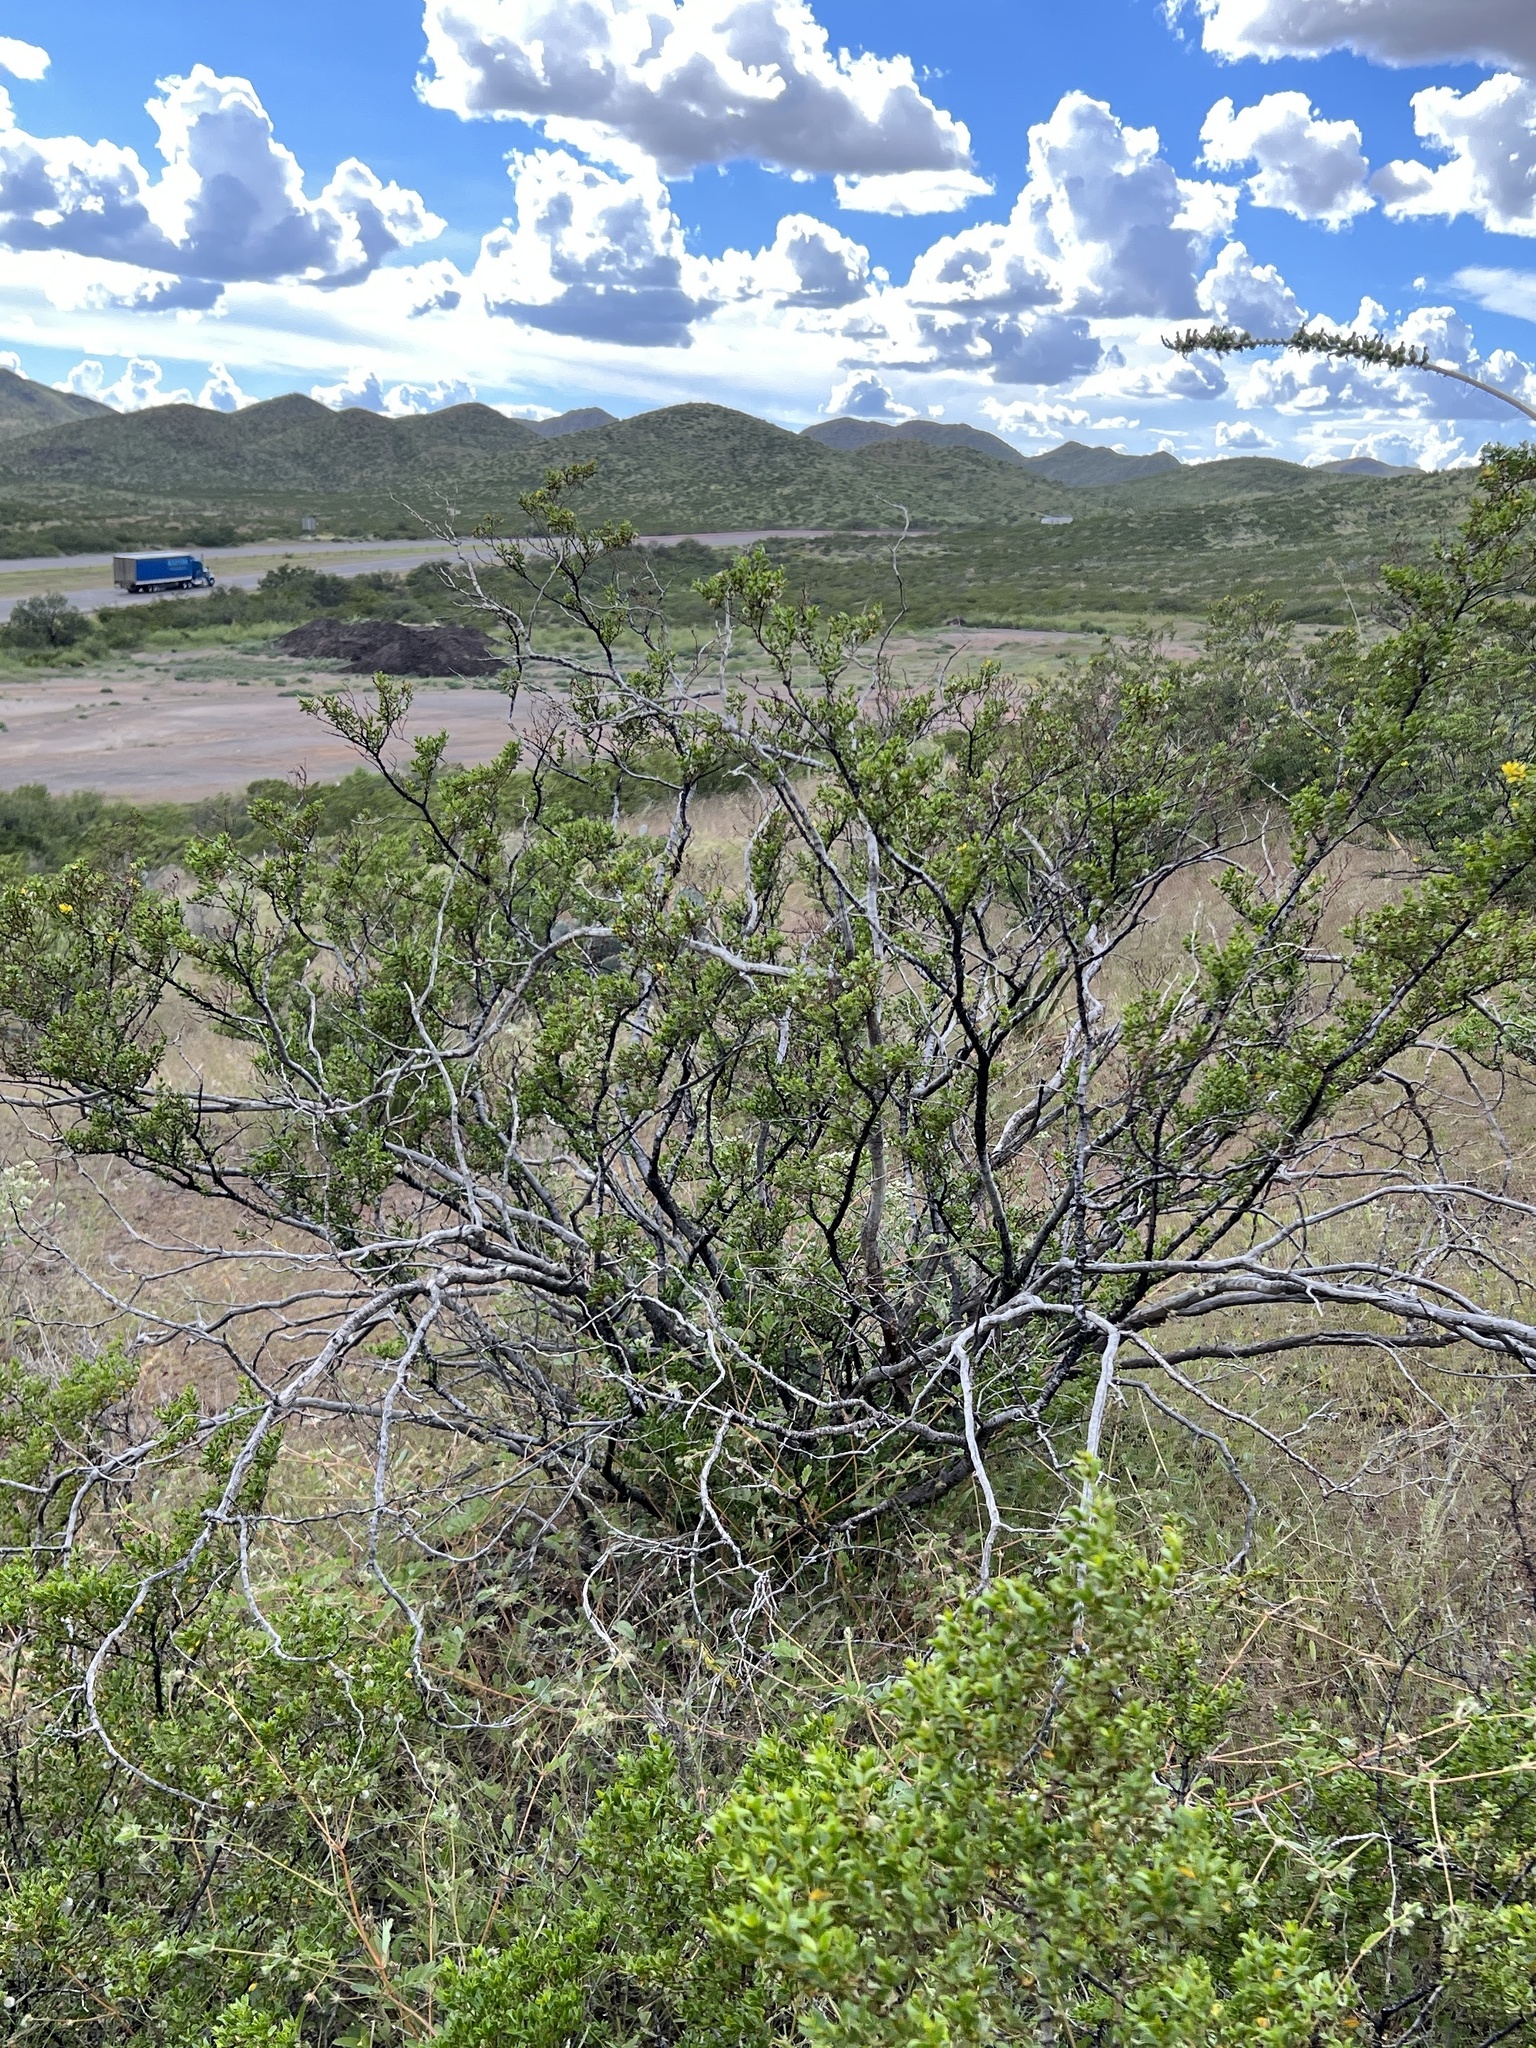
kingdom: Plantae
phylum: Tracheophyta
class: Magnoliopsida
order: Zygophyllales
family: Zygophyllaceae
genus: Larrea
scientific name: Larrea tridentata
